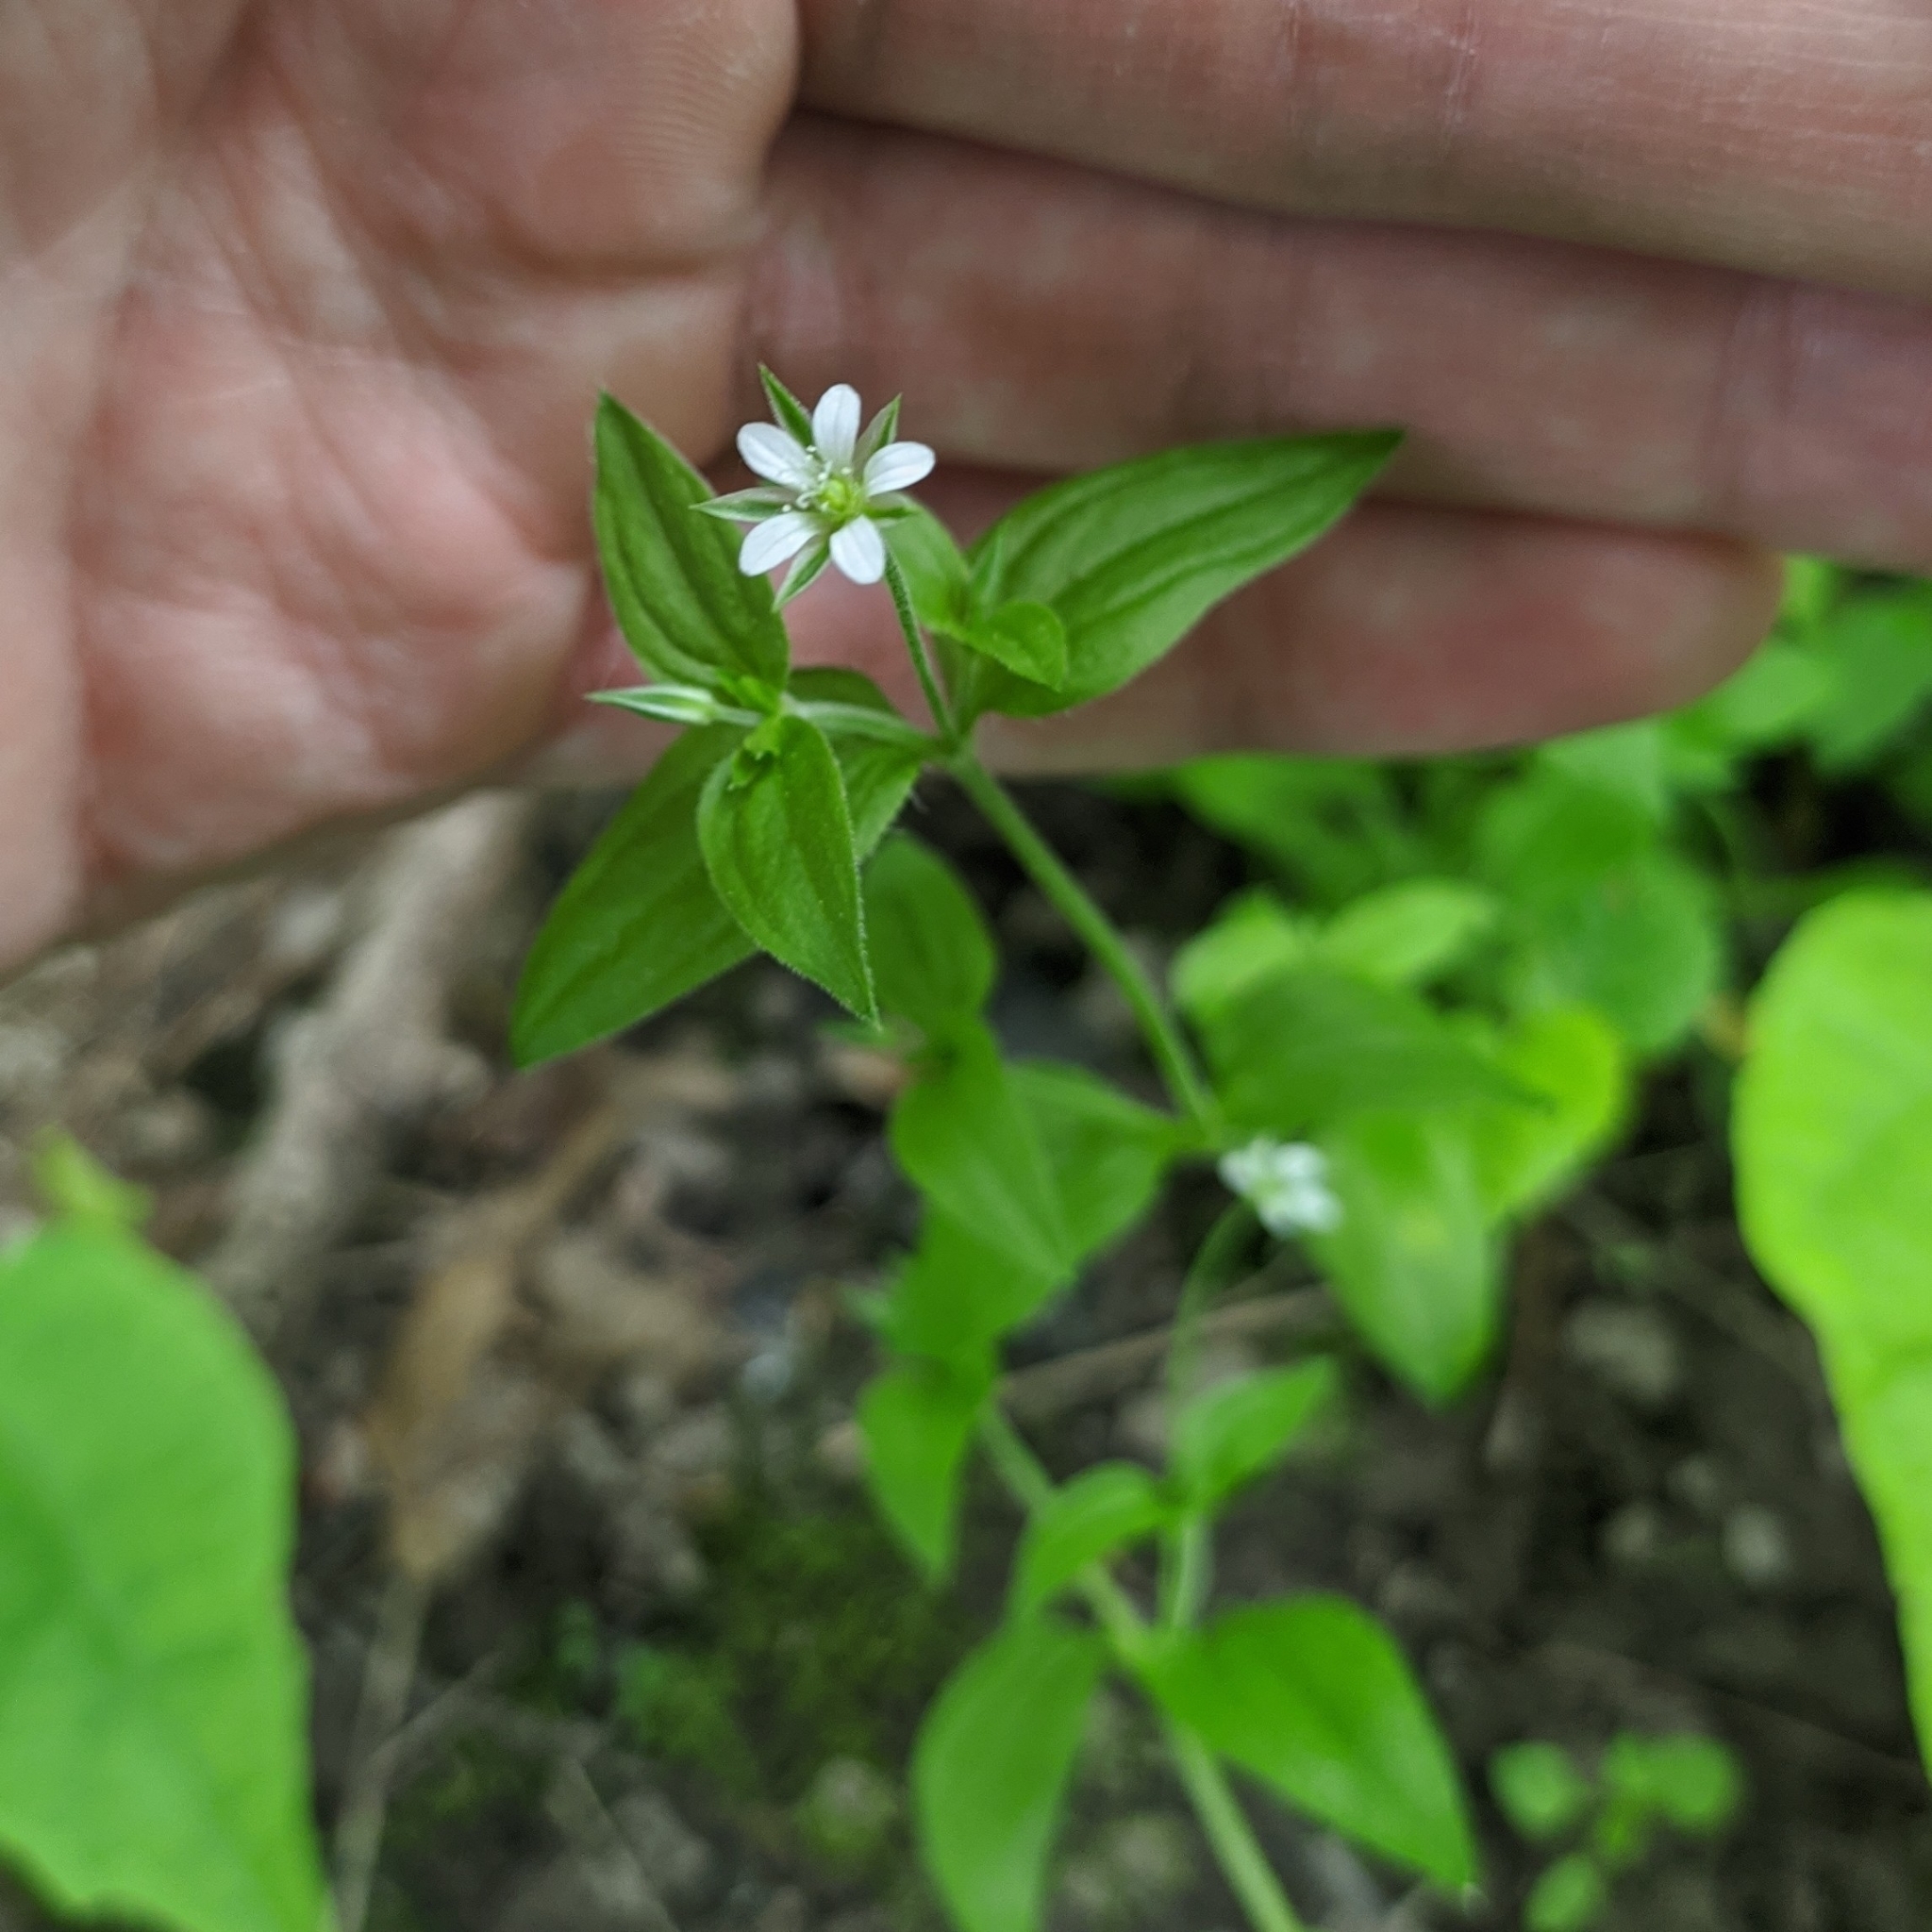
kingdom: Plantae
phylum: Tracheophyta
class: Magnoliopsida
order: Caryophyllales
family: Caryophyllaceae
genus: Moehringia
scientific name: Moehringia trinervia
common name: Three-nerved sandwort
